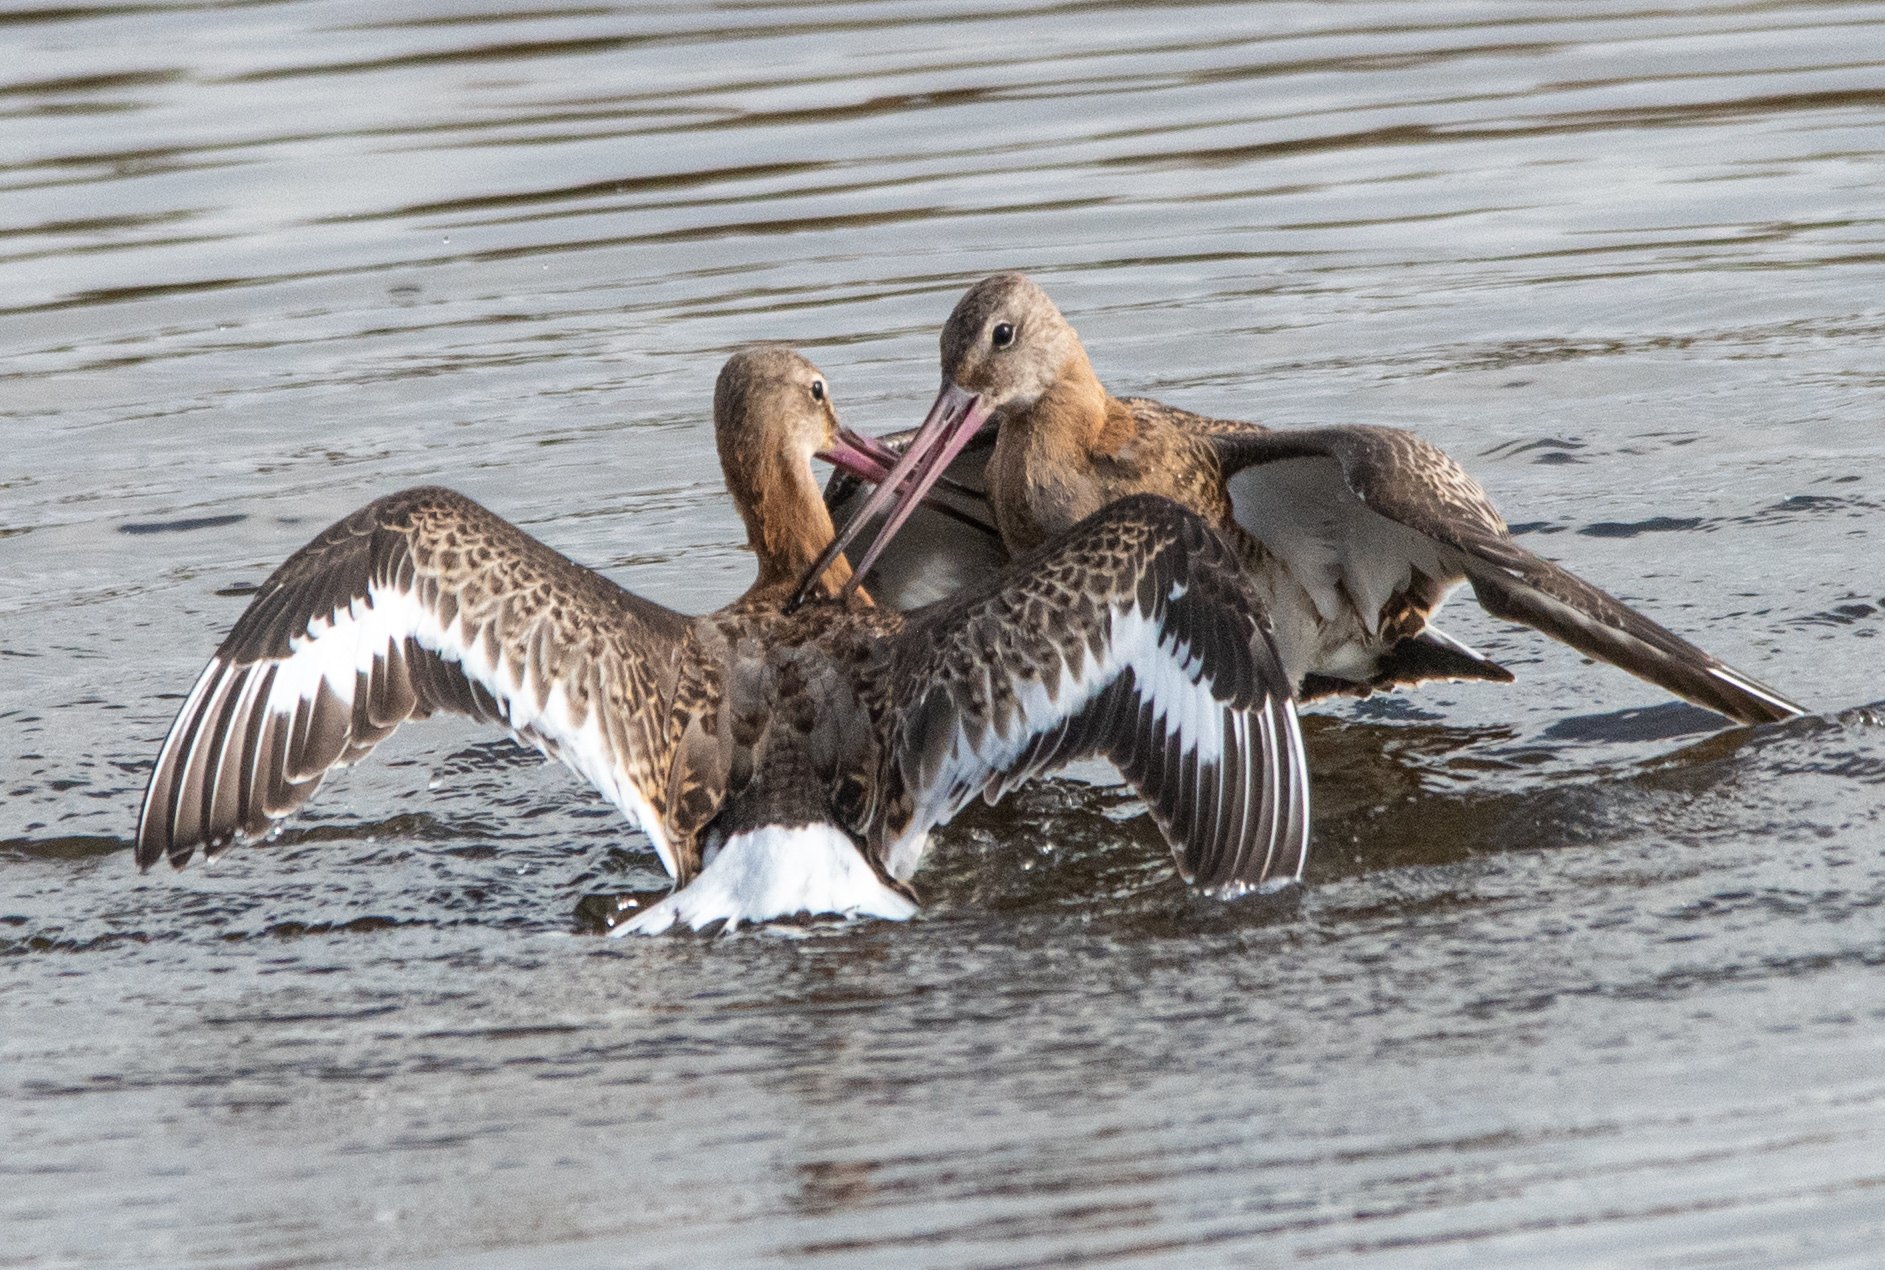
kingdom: Animalia
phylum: Chordata
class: Aves
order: Charadriiformes
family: Scolopacidae
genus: Limosa
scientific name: Limosa limosa
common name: Black-tailed godwit
